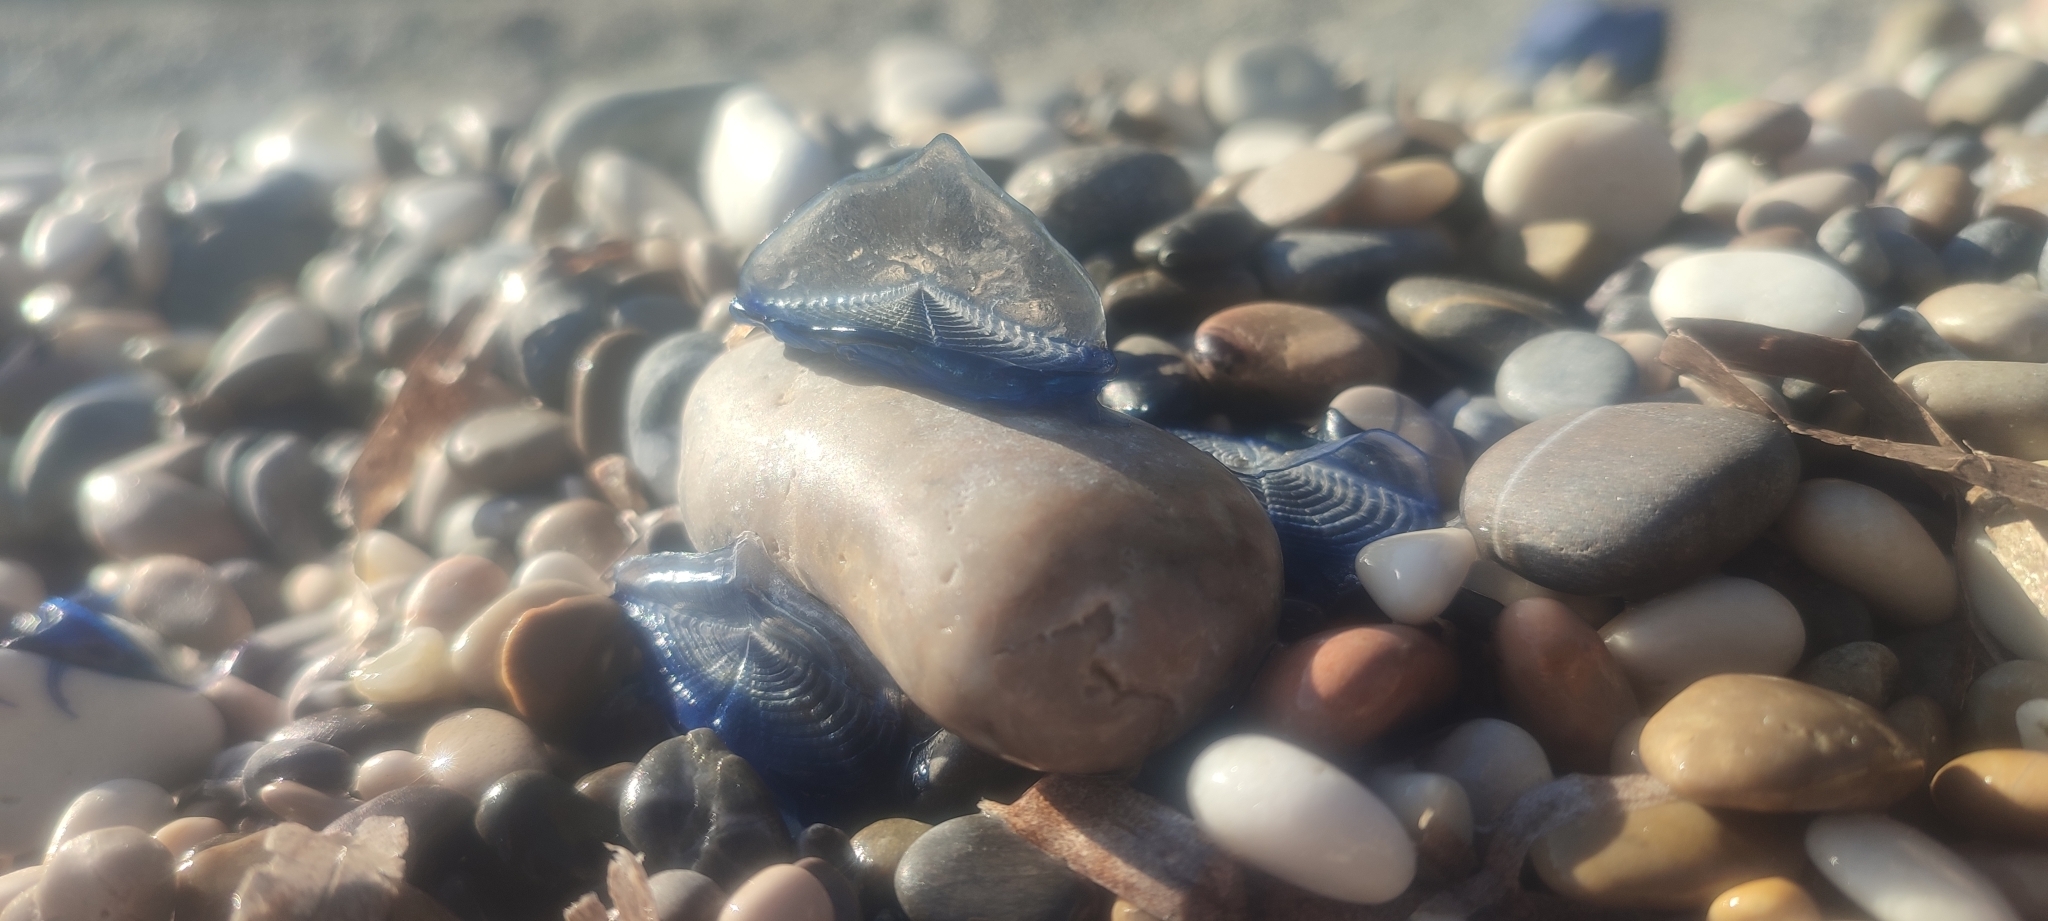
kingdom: Animalia
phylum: Cnidaria
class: Hydrozoa
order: Anthoathecata
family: Porpitidae
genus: Velella
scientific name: Velella velella
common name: By-the-wind-sailor
